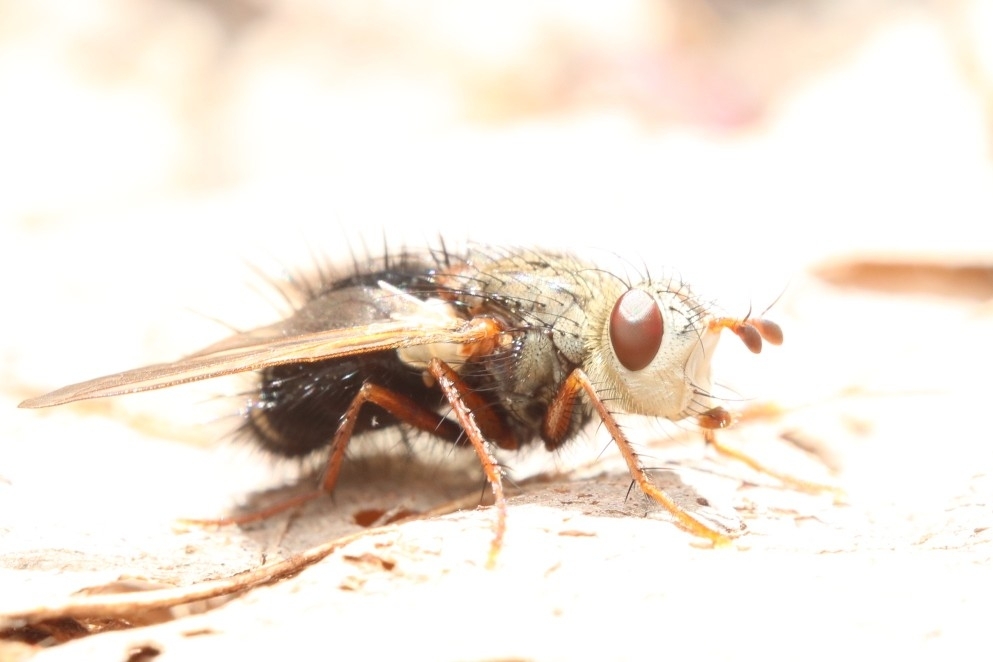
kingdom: Animalia
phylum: Arthropoda
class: Insecta
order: Diptera
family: Tachinidae
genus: Epalpus
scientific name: Epalpus signifer
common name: Early tachinid fly
